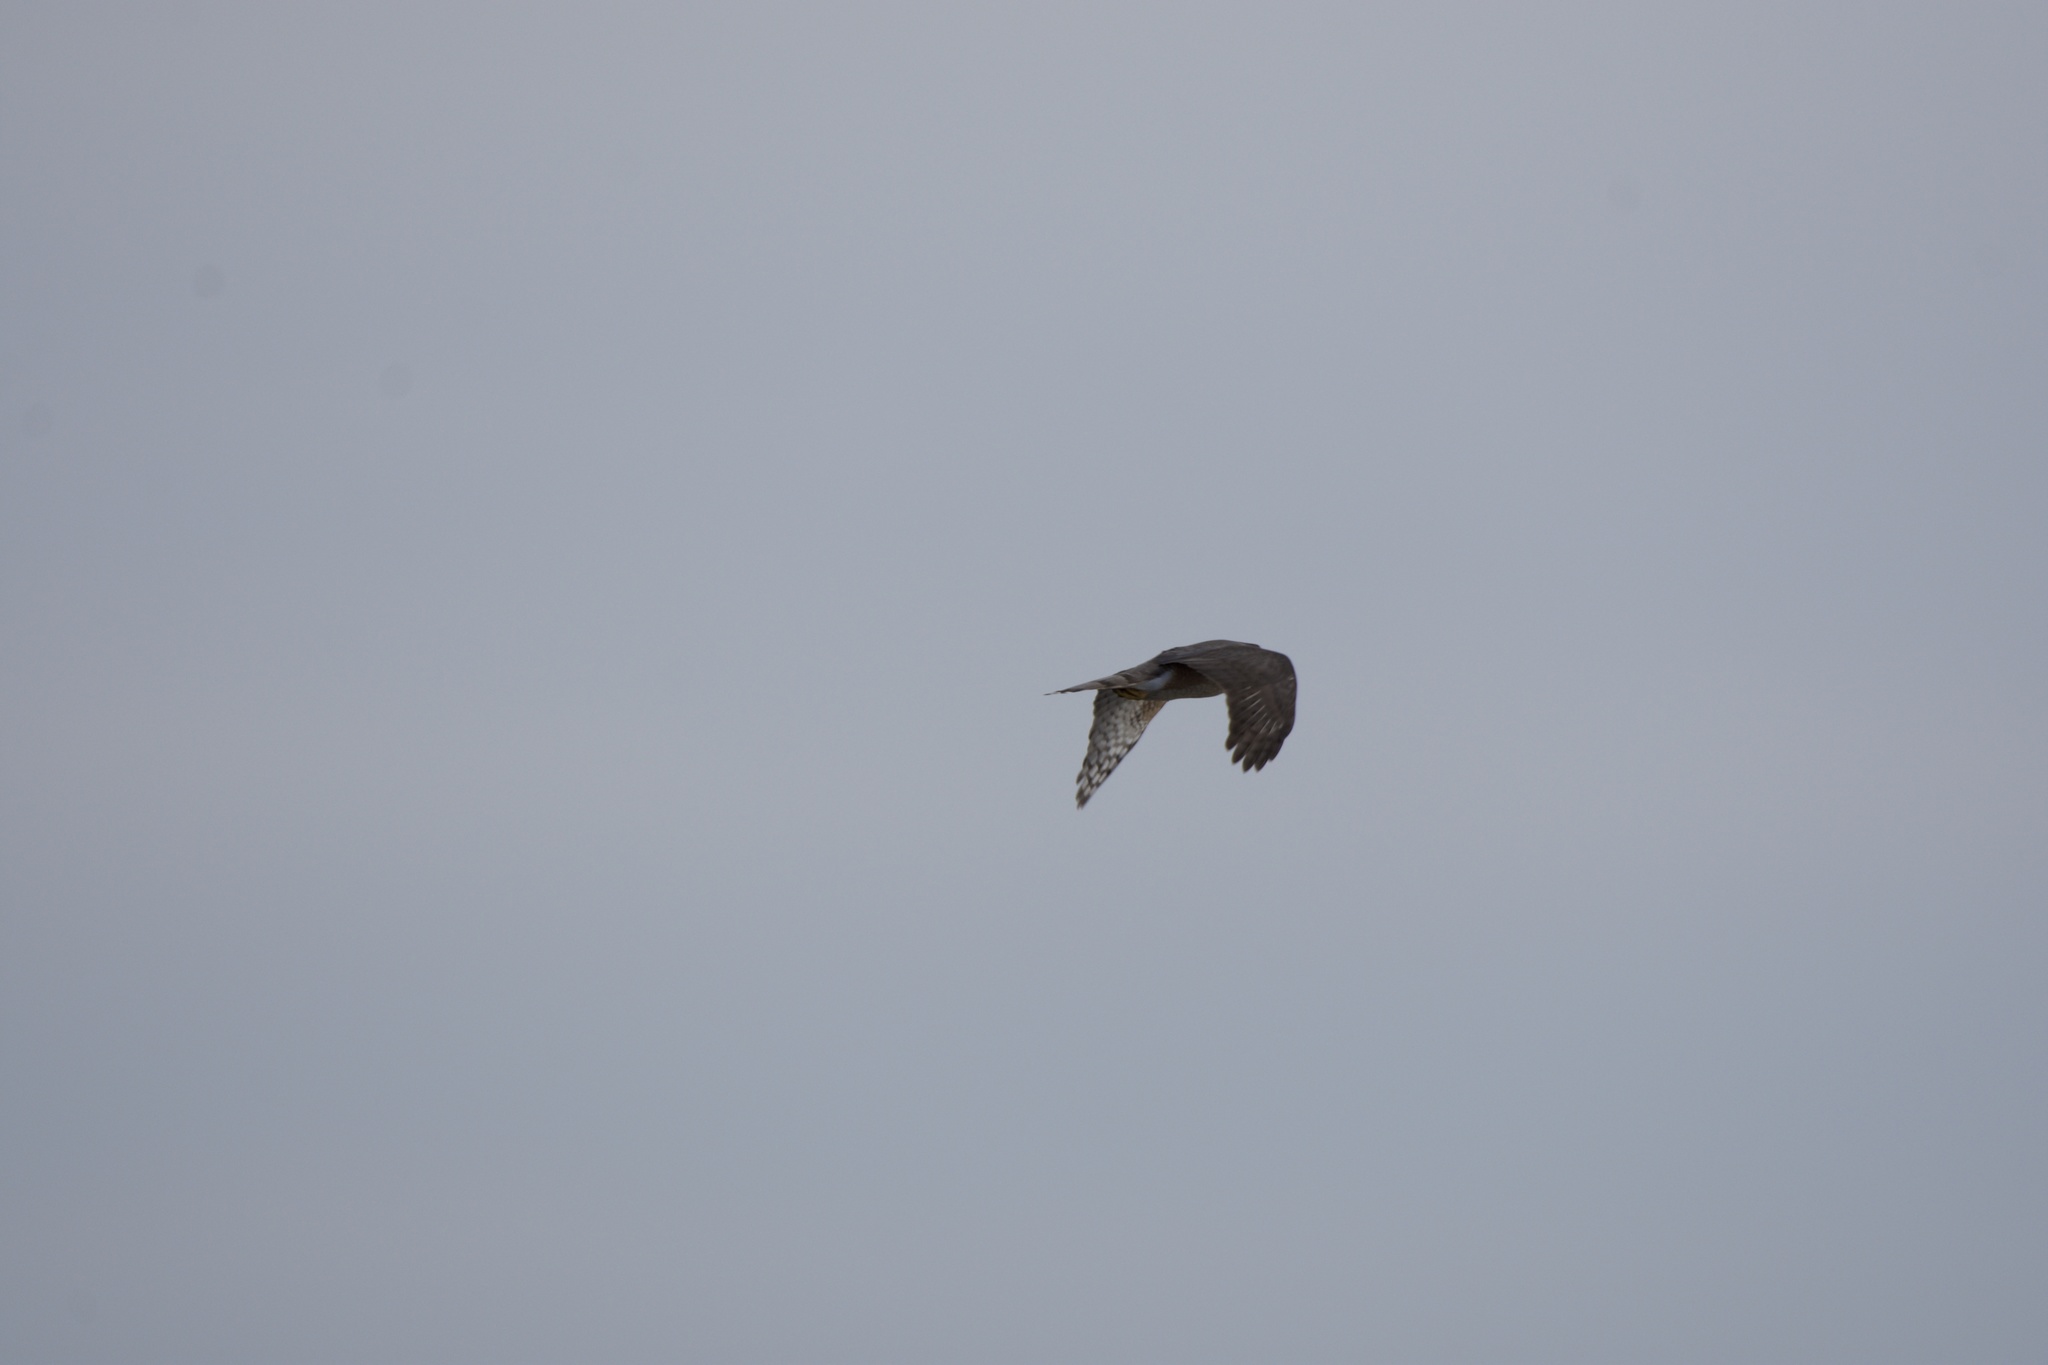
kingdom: Animalia
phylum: Chordata
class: Aves
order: Accipitriformes
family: Accipitridae
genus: Accipiter
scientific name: Accipiter cooperii
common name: Cooper's hawk
